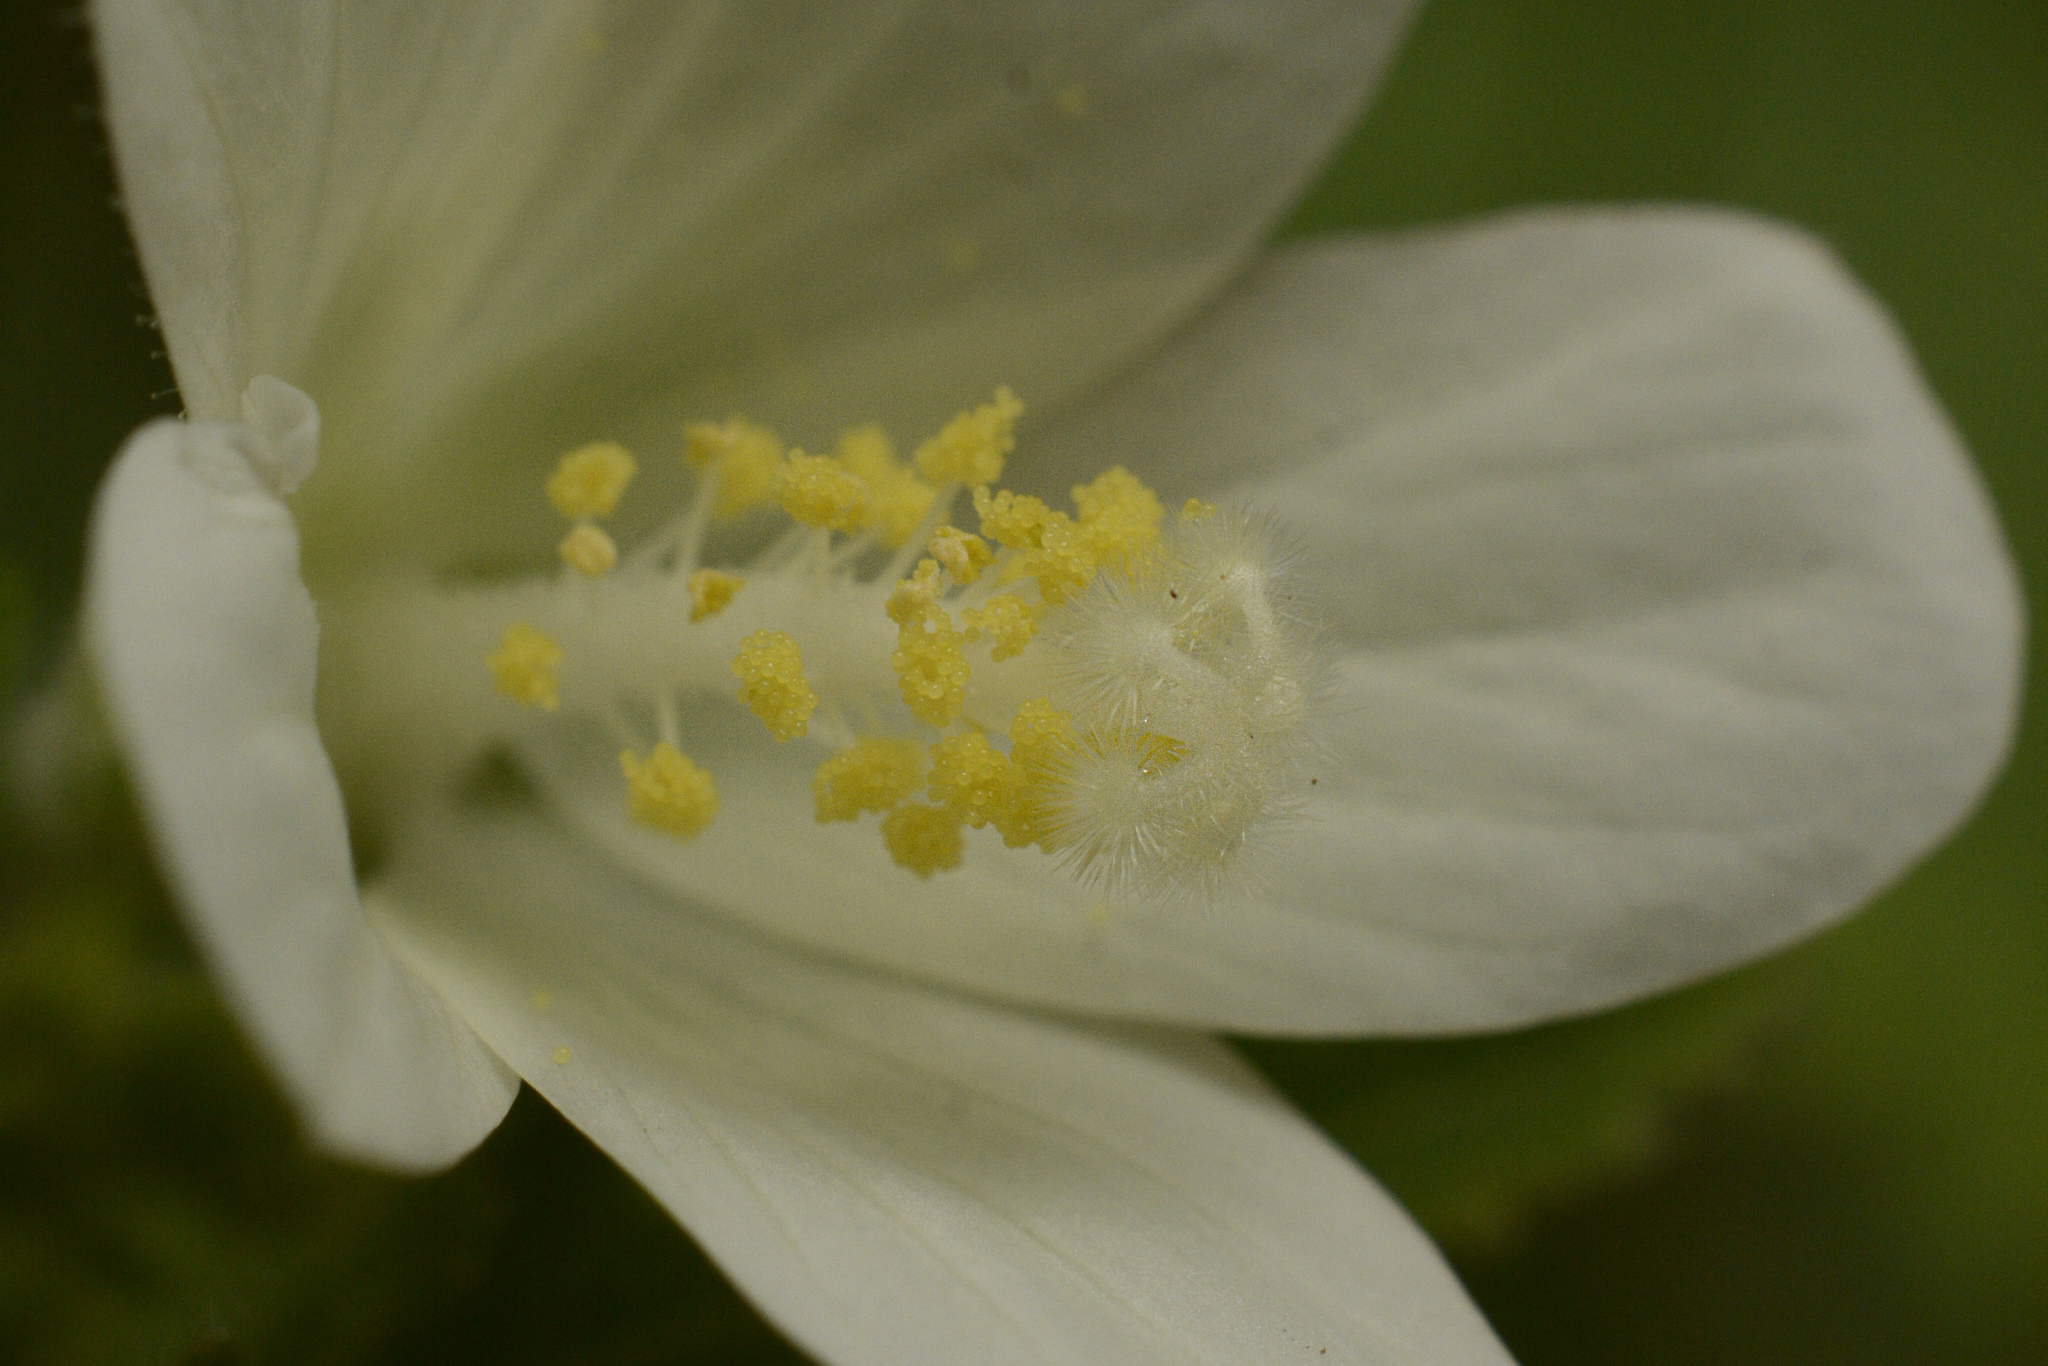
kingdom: Plantae
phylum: Tracheophyta
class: Magnoliopsida
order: Malvales
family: Malvaceae
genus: Hibiscus
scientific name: Hibiscus lobatus
